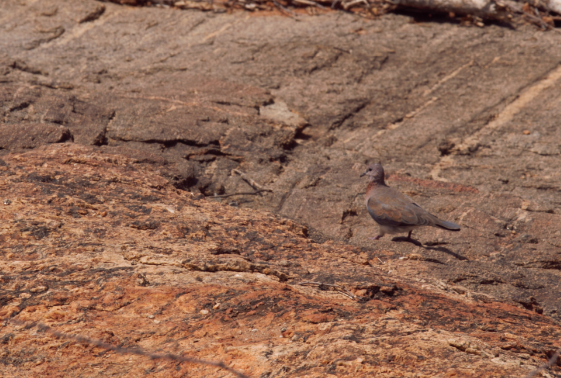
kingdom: Animalia
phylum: Chordata
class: Aves
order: Columbiformes
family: Columbidae
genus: Spilopelia
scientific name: Spilopelia senegalensis
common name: Laughing dove
